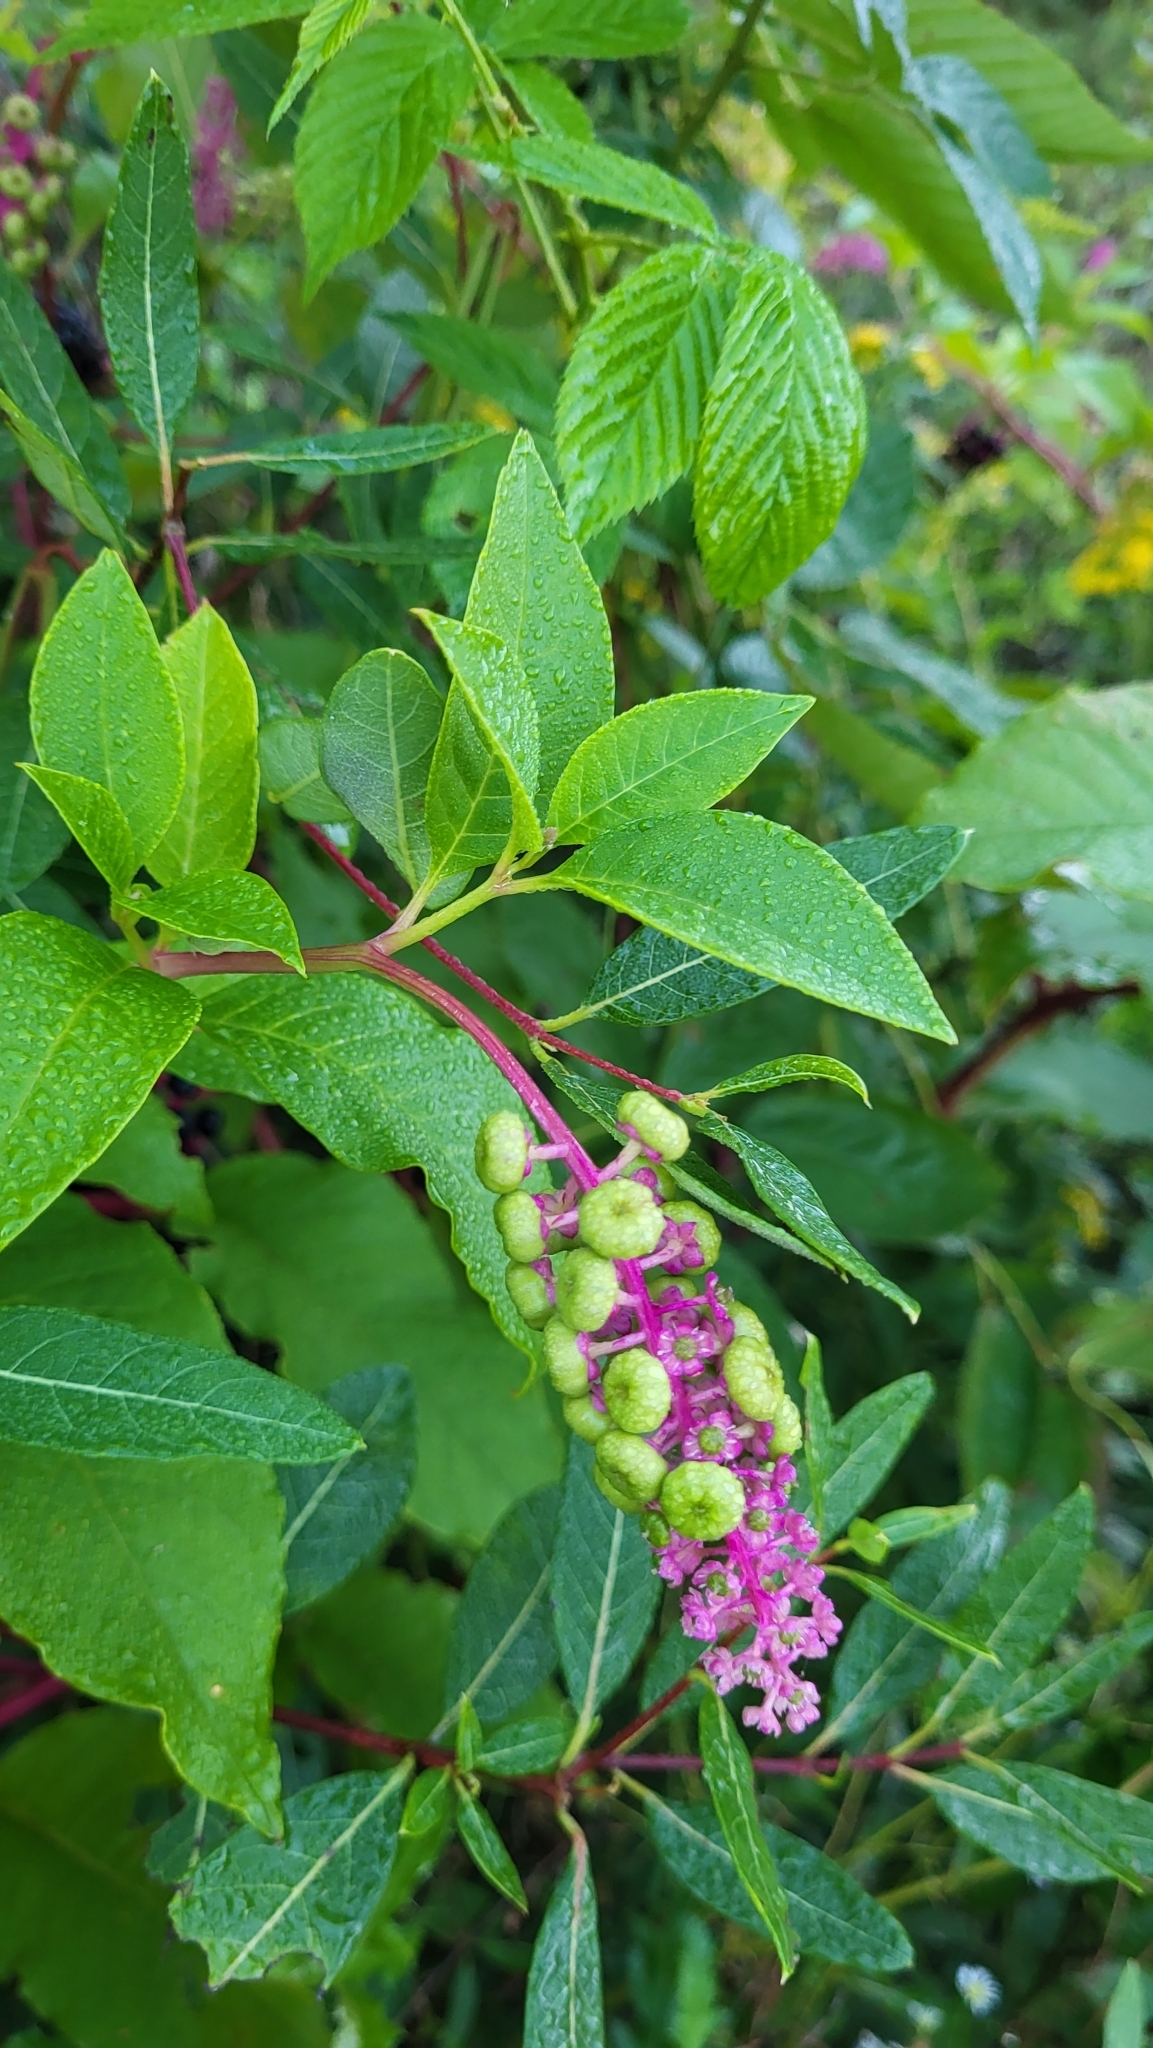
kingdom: Plantae
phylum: Tracheophyta
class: Magnoliopsida
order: Caryophyllales
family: Phytolaccaceae
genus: Phytolacca
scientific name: Phytolacca americana
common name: American pokeweed
